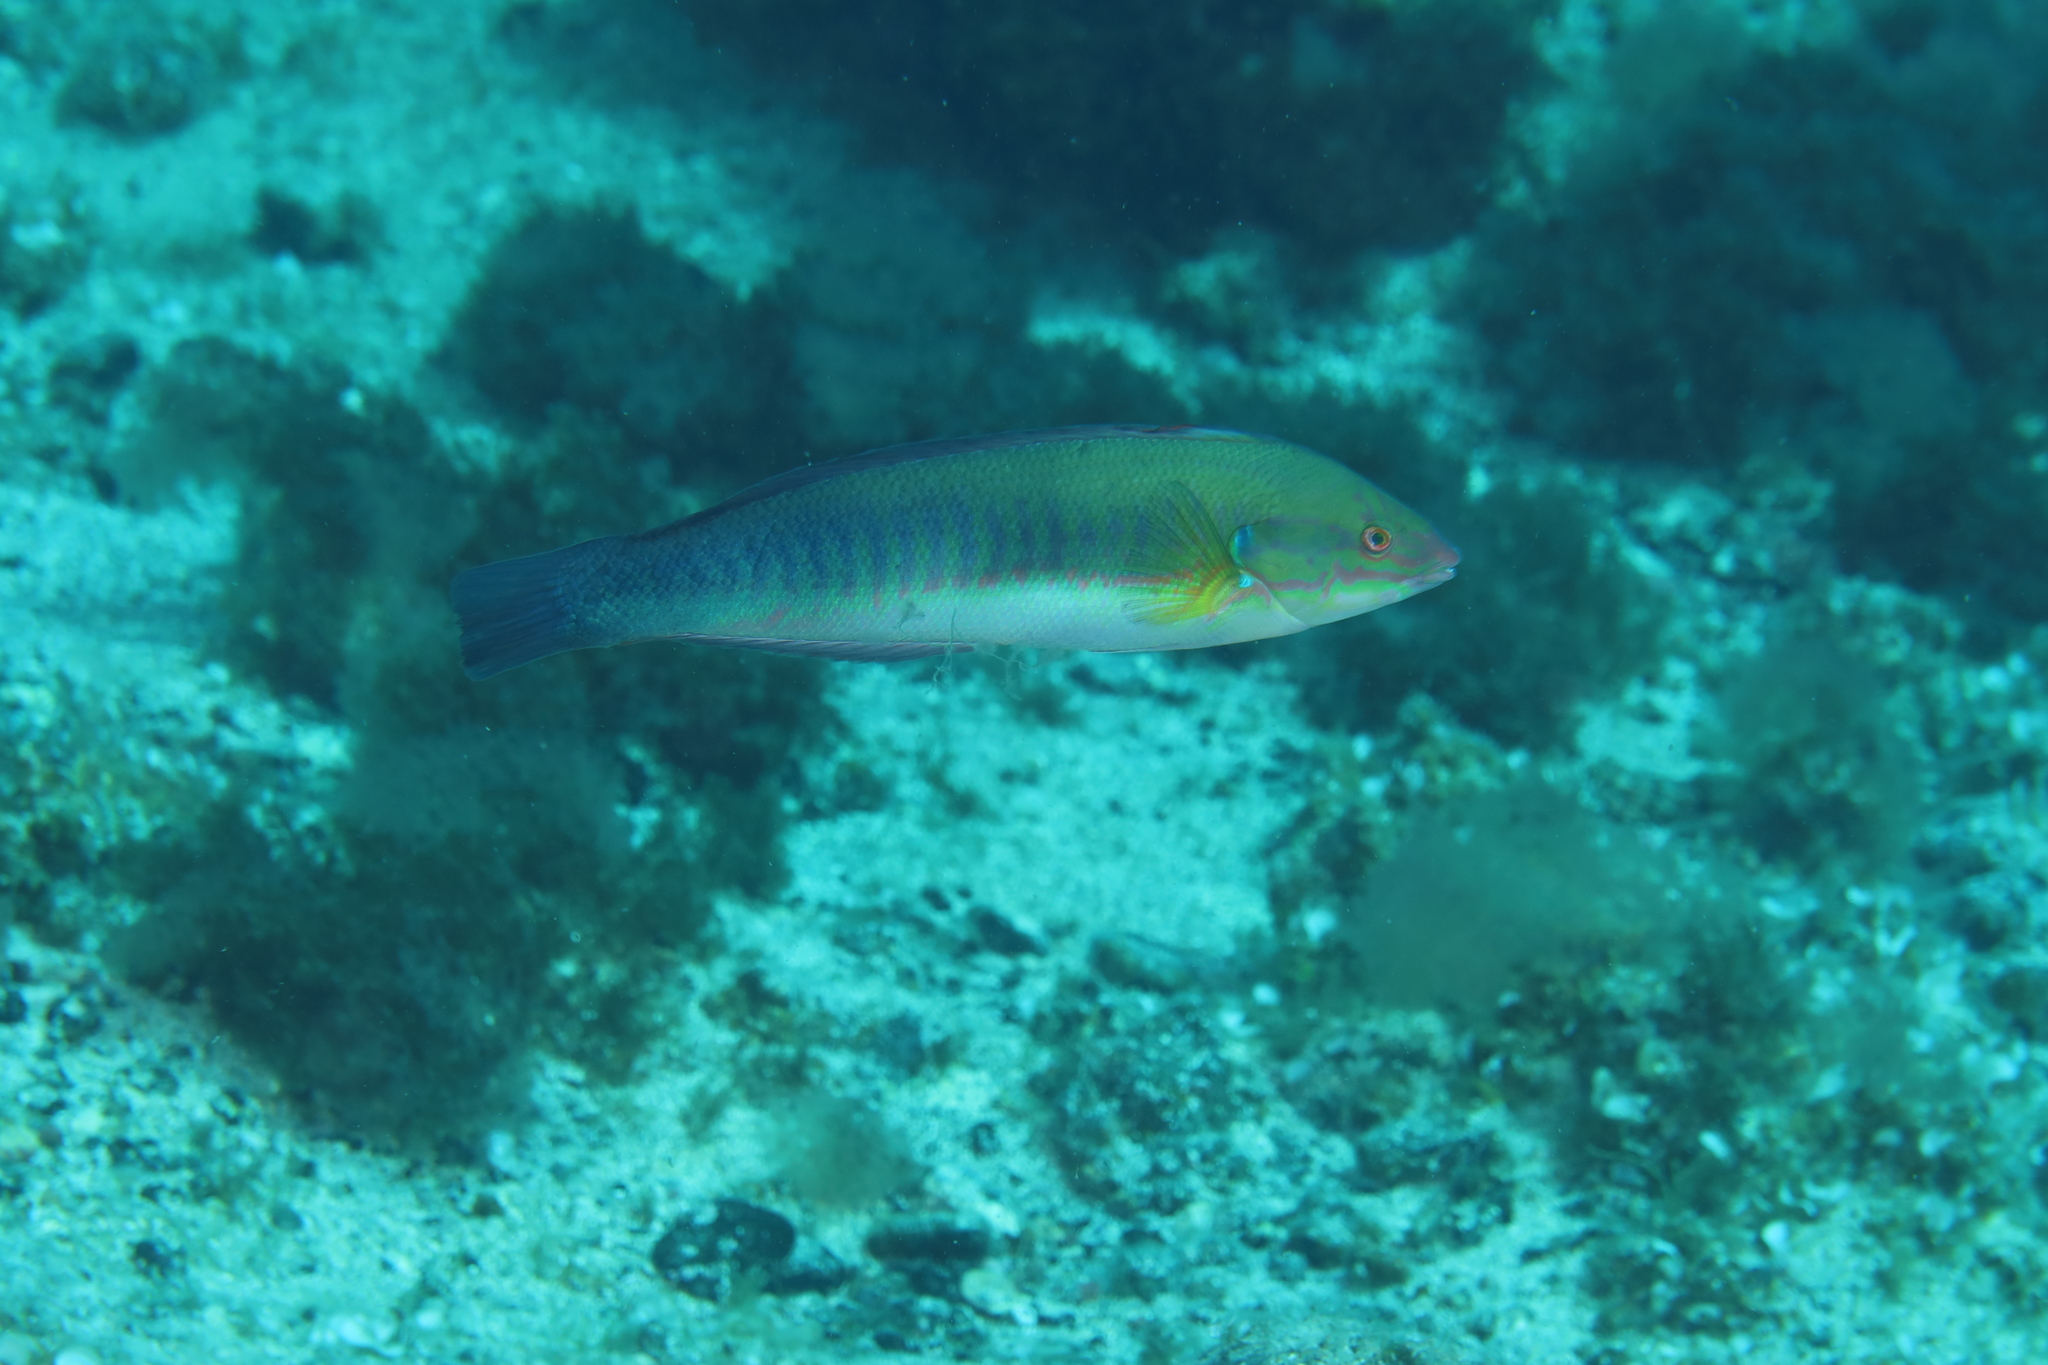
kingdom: Animalia
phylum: Chordata
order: Perciformes
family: Labridae
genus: Coris
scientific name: Coris
